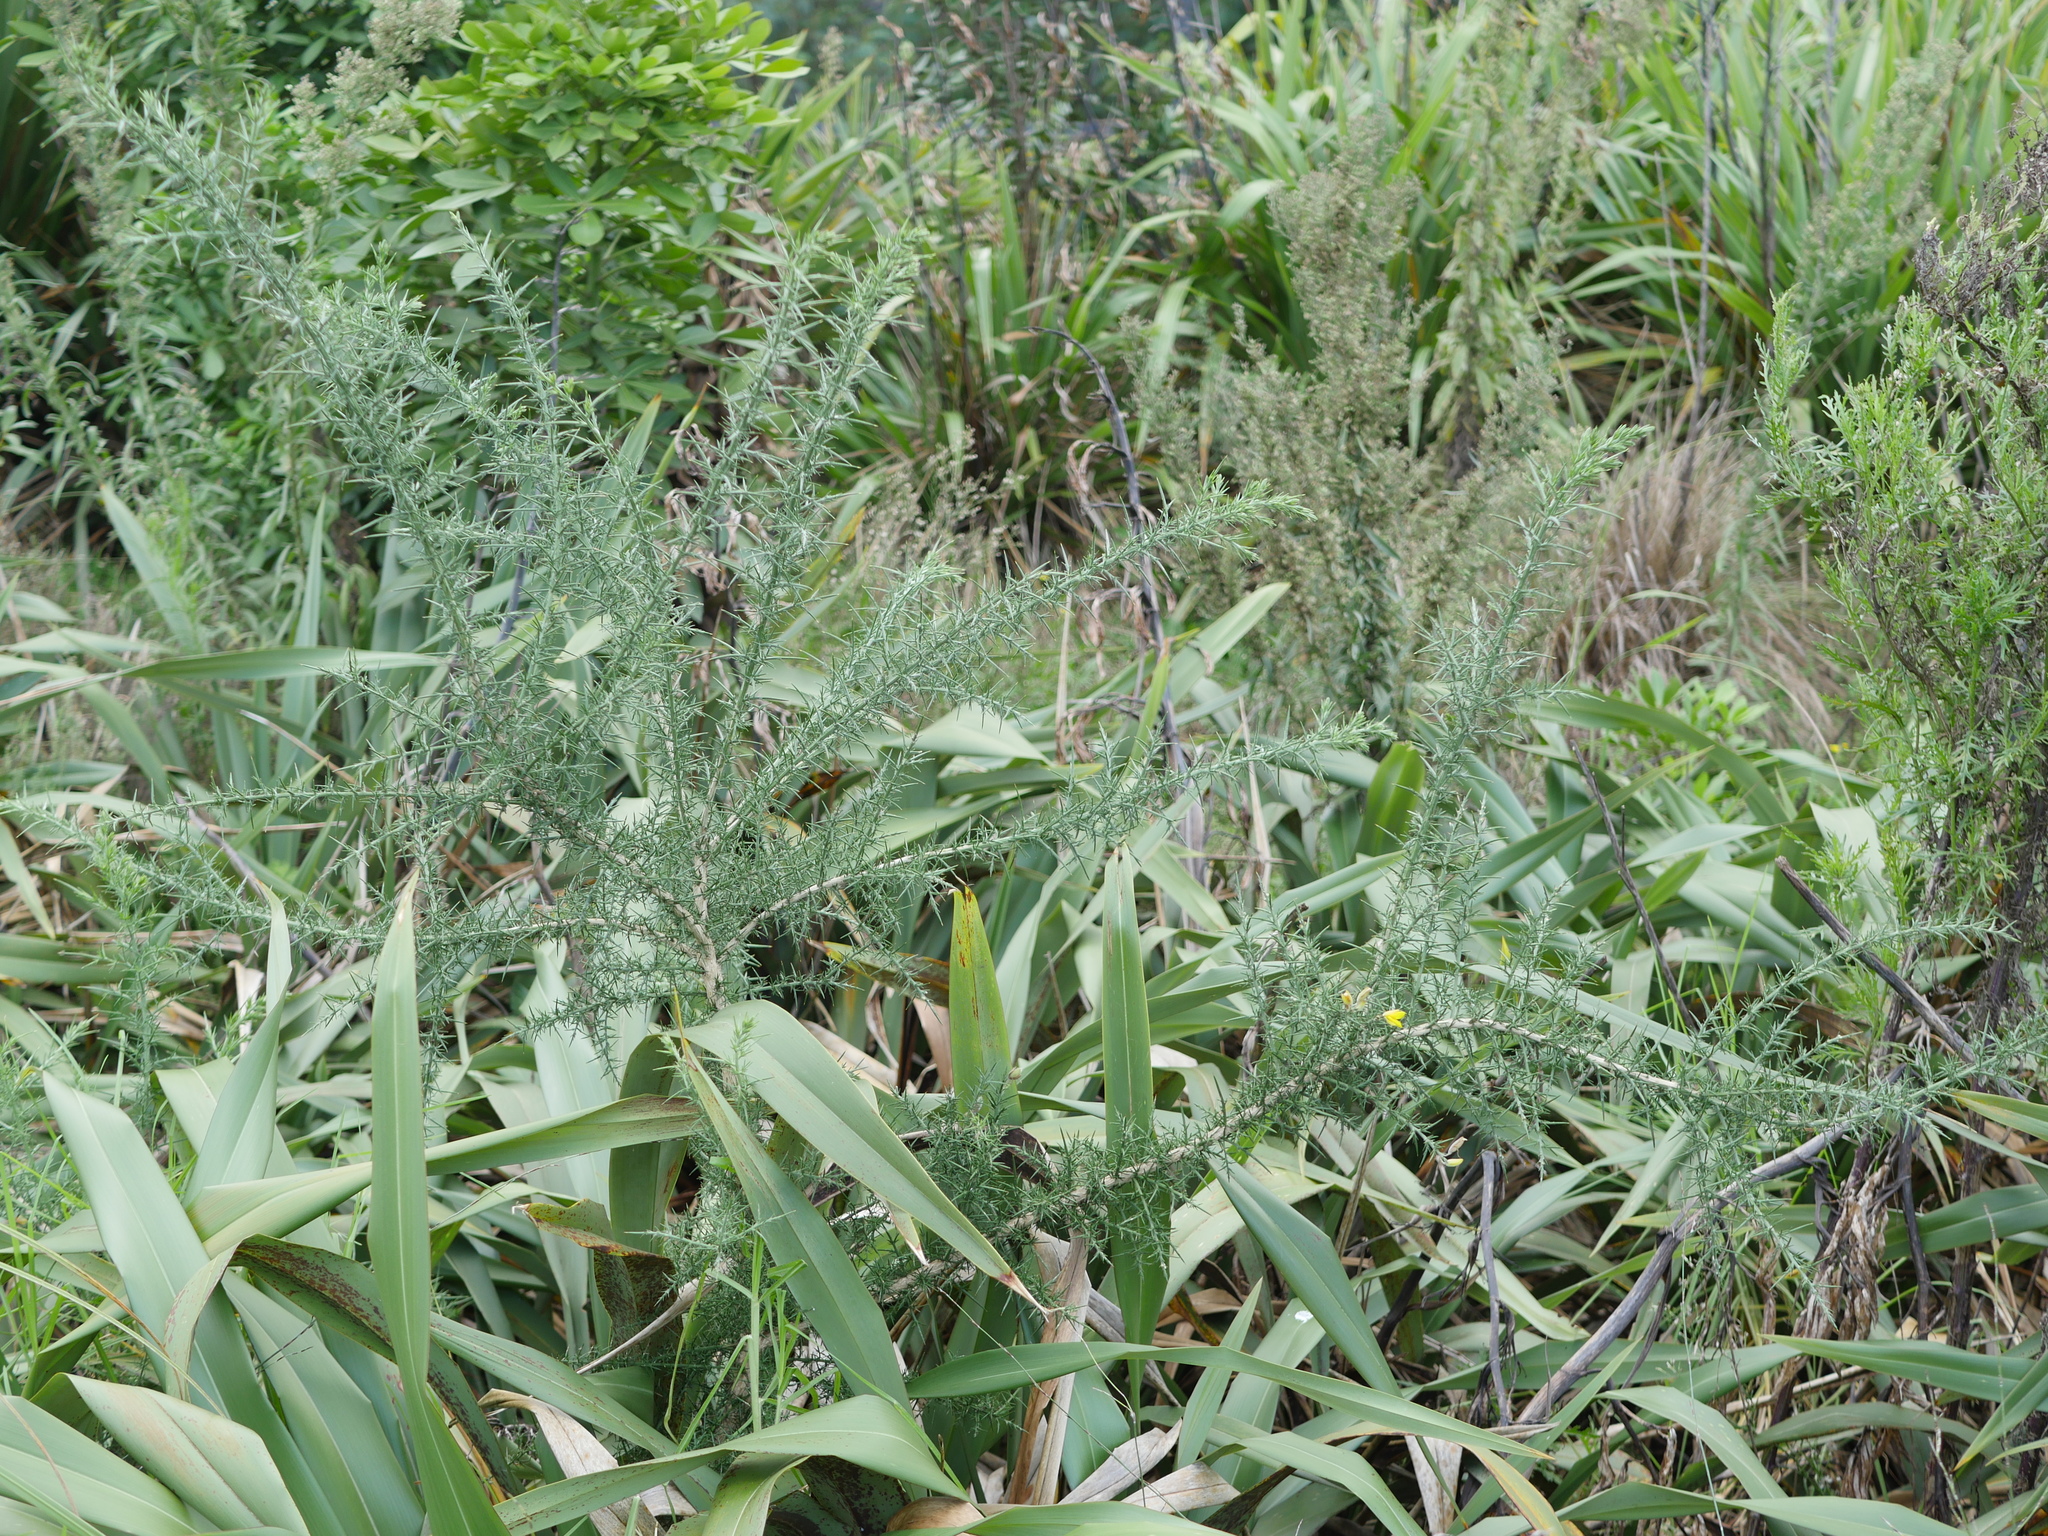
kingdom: Plantae
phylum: Tracheophyta
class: Magnoliopsida
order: Fabales
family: Fabaceae
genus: Ulex
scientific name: Ulex europaeus
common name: Common gorse
